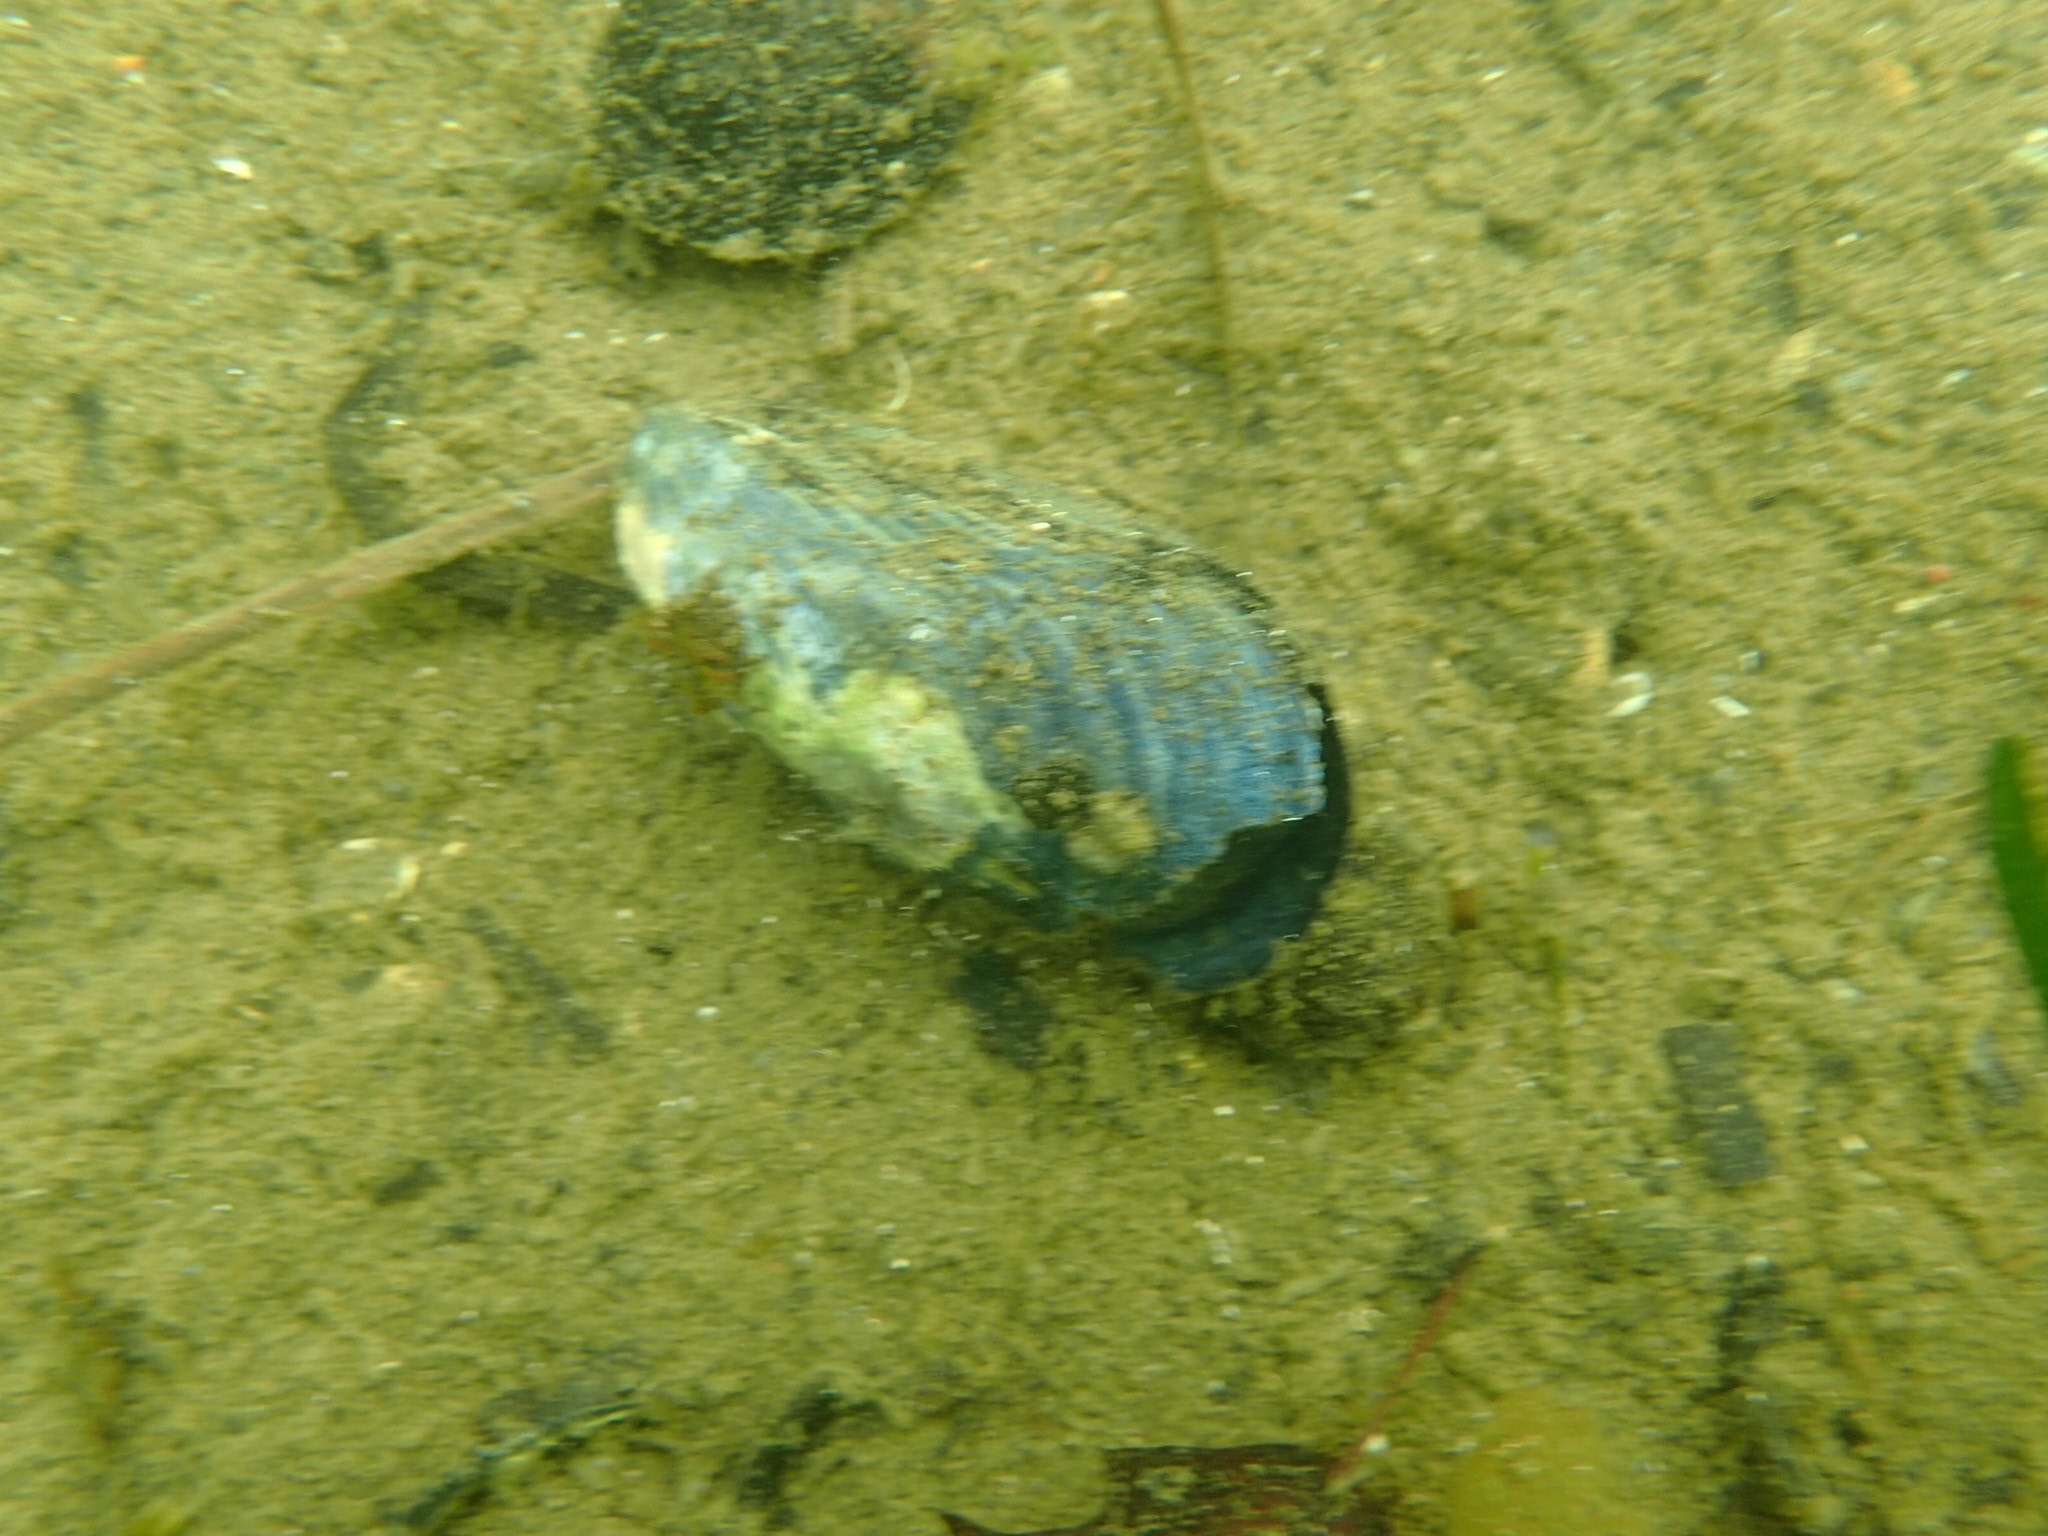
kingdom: Animalia
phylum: Mollusca
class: Bivalvia
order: Mytilida
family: Mytilidae
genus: Mytilus
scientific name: Mytilus edulis
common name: Blue mussel
